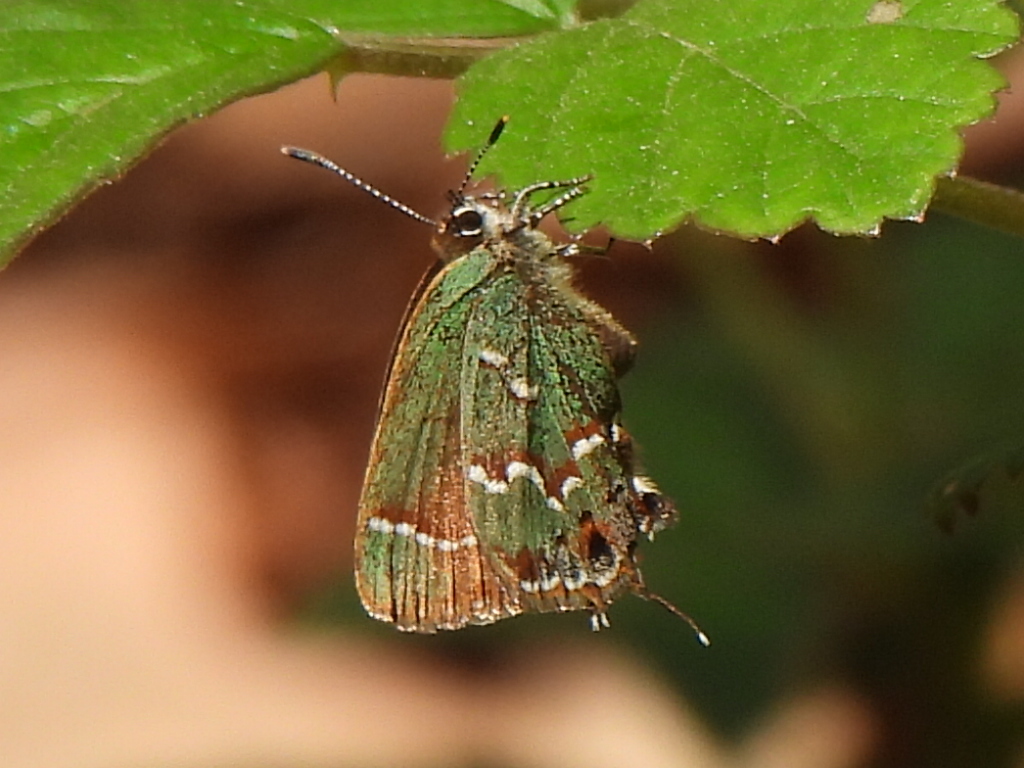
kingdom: Animalia
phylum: Arthropoda
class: Insecta
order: Lepidoptera
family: Lycaenidae
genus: Mitoura
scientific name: Mitoura gryneus
